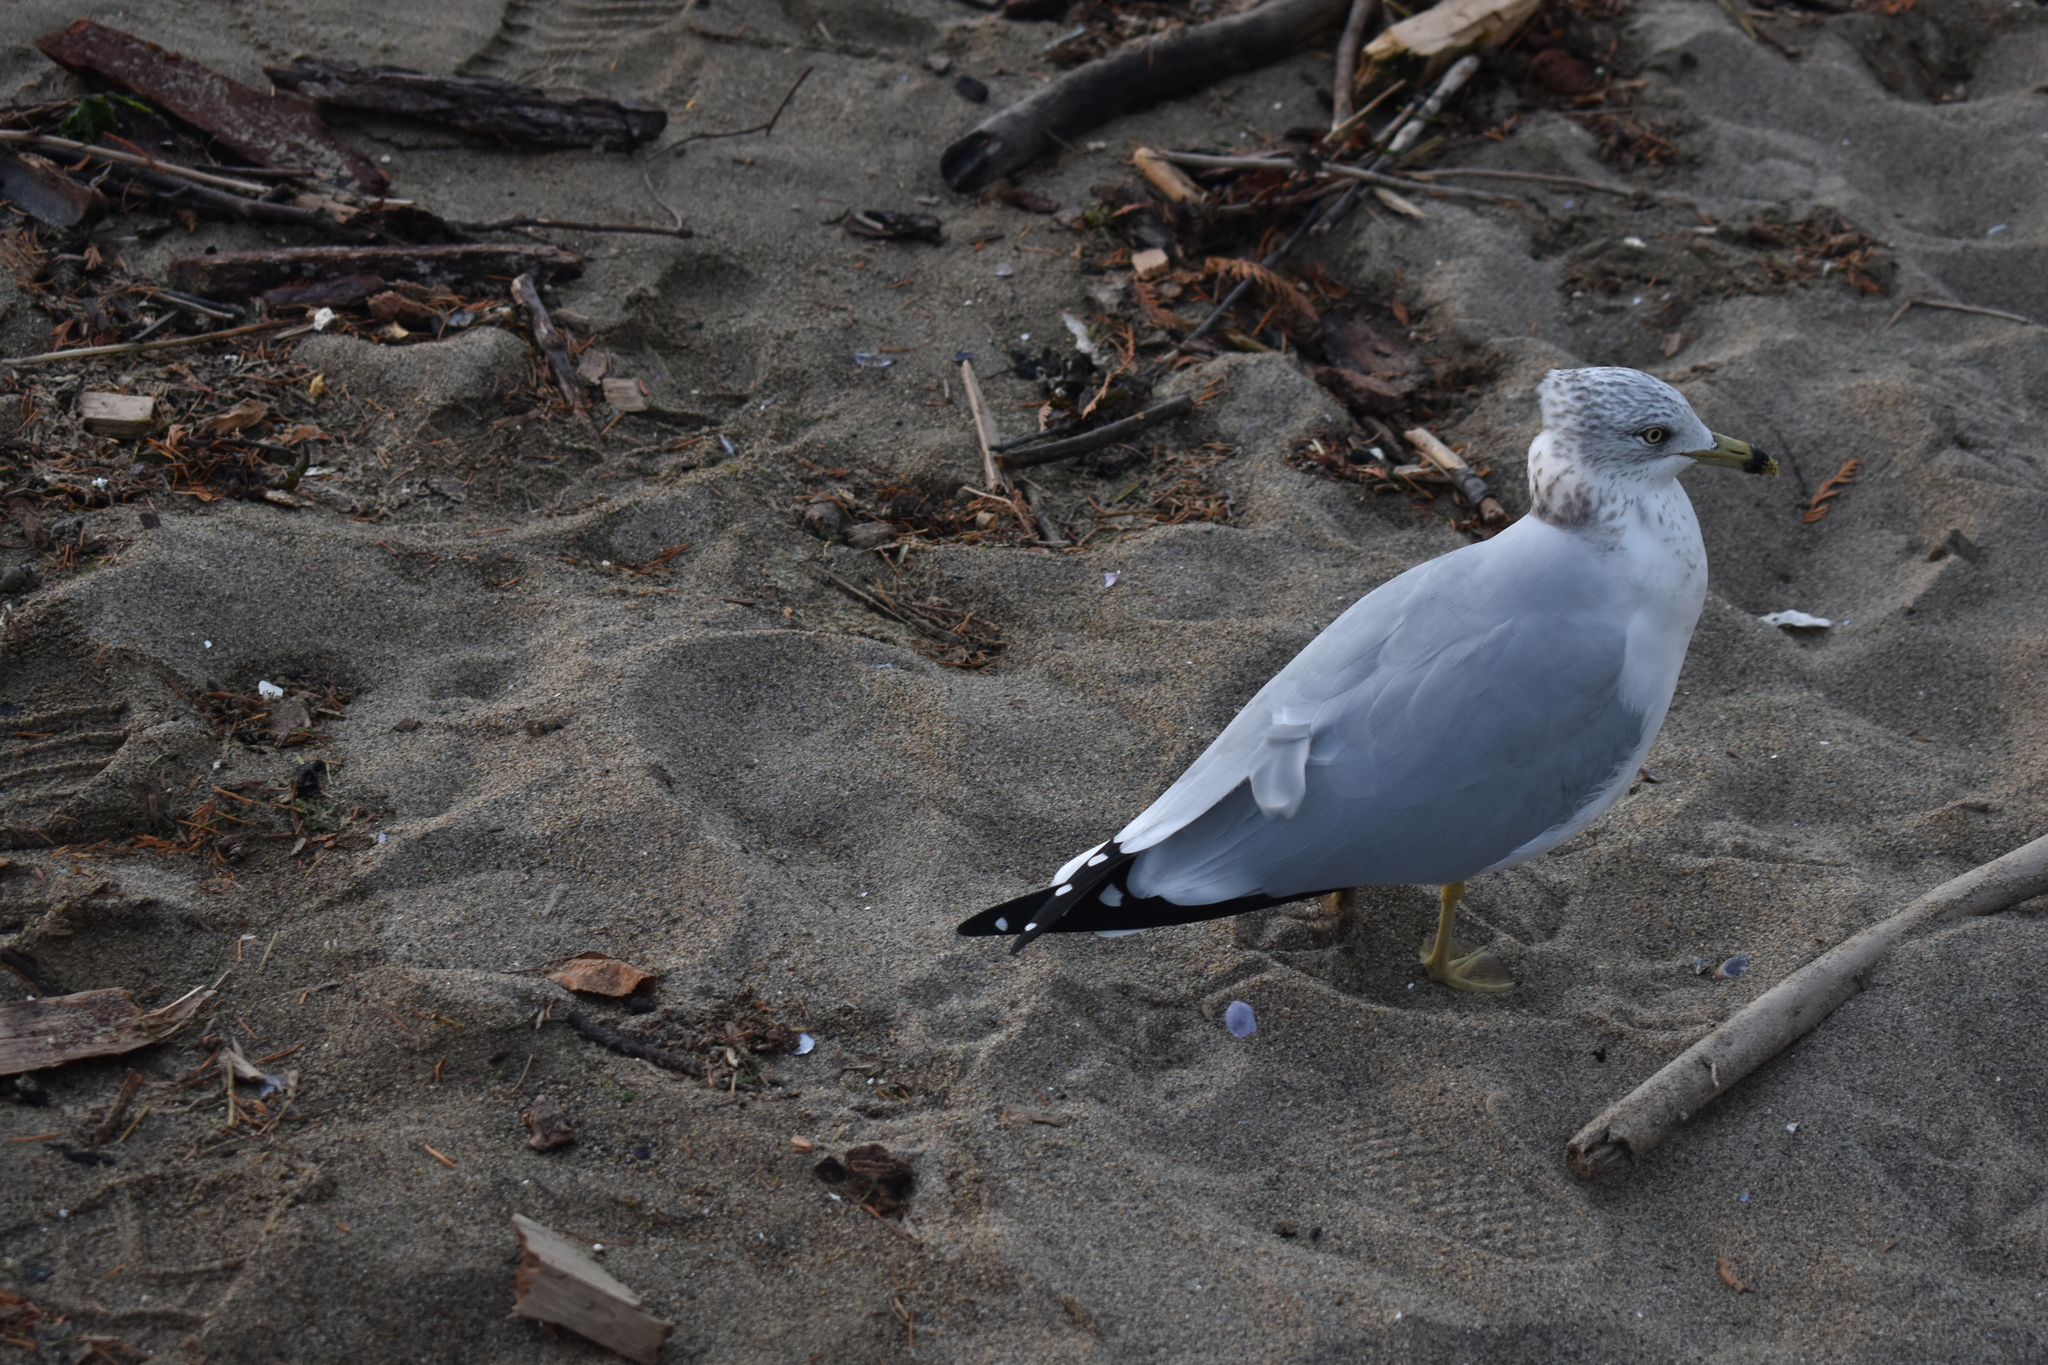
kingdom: Animalia
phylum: Chordata
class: Aves
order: Charadriiformes
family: Laridae
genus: Larus
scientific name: Larus delawarensis
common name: Ring-billed gull
